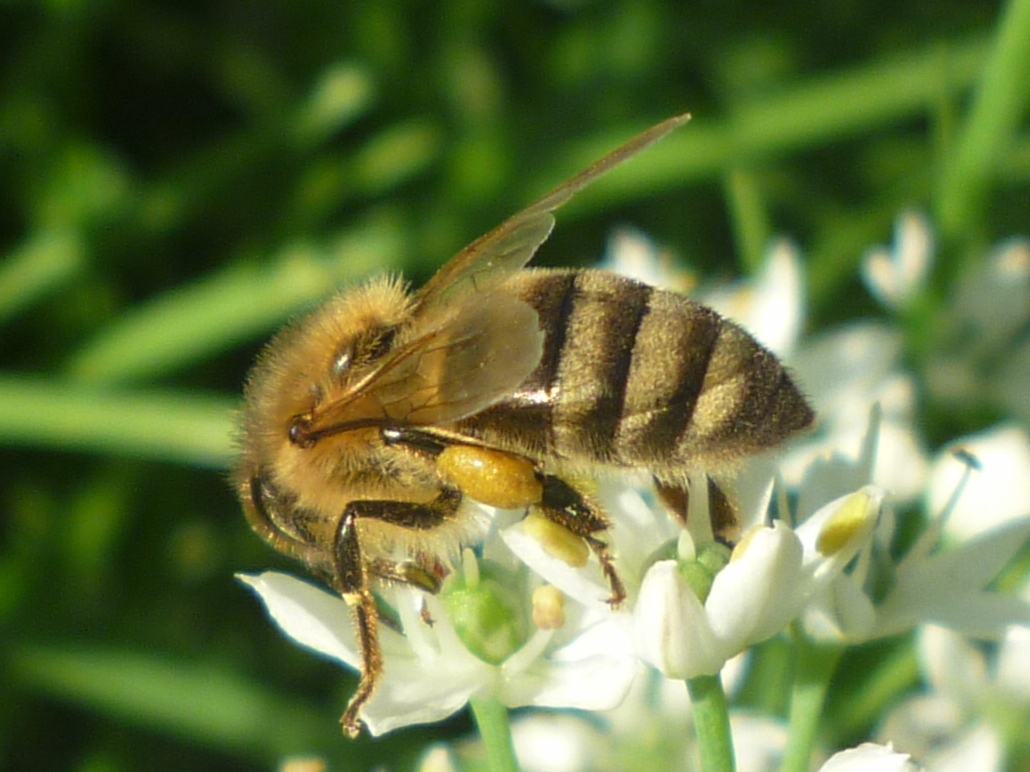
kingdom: Animalia
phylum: Arthropoda
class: Insecta
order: Hymenoptera
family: Apidae
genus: Apis
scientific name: Apis mellifera
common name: Honey bee
